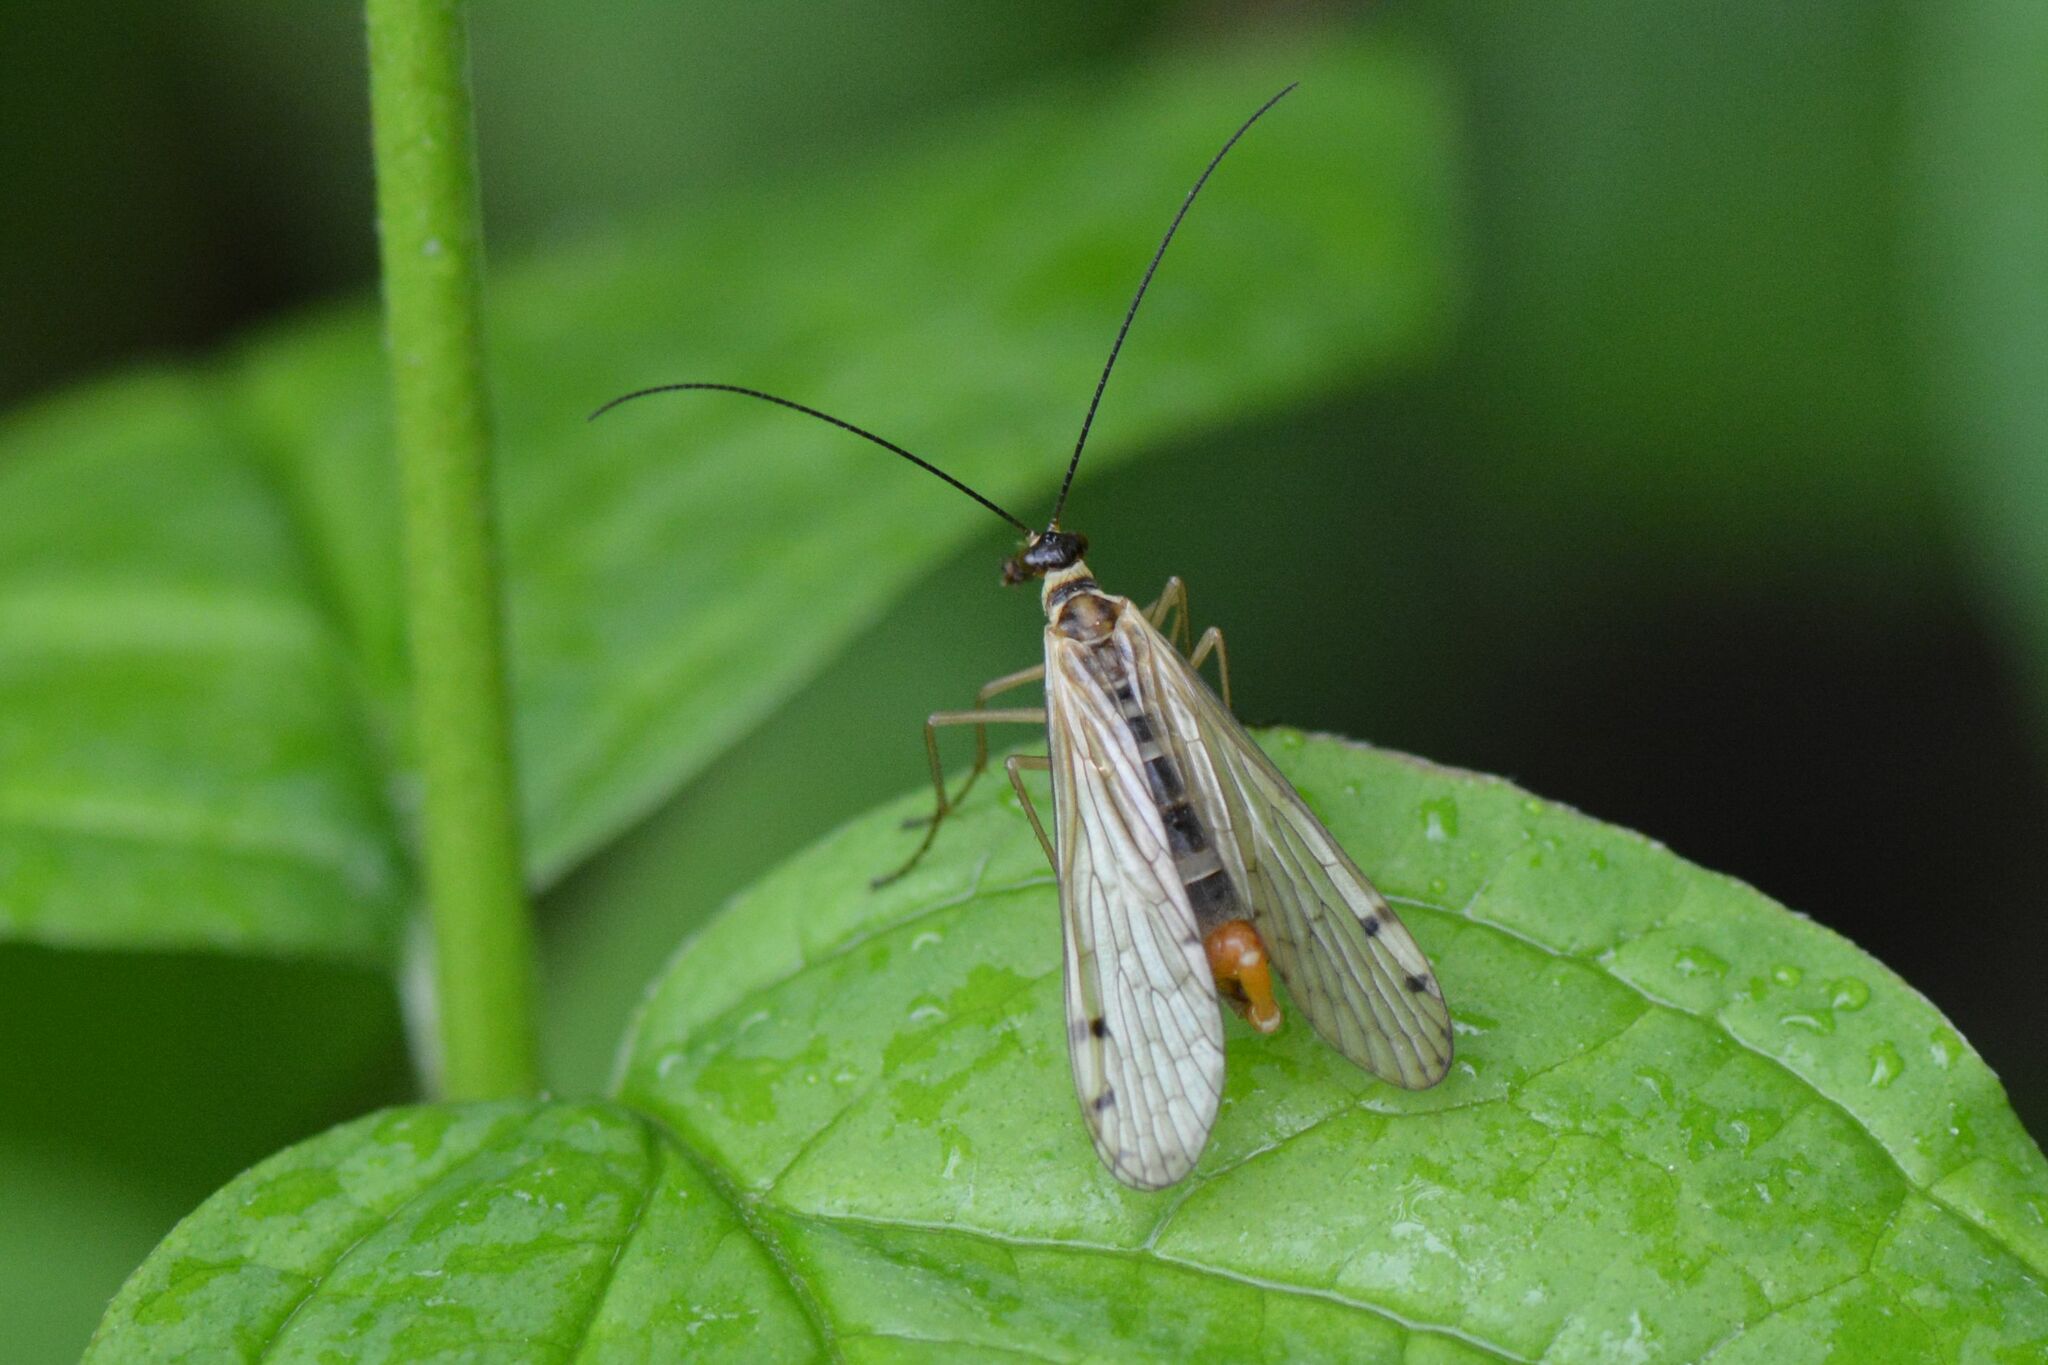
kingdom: Animalia
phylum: Arthropoda
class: Insecta
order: Mecoptera
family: Panorpidae
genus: Panorpa
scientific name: Panorpa alpina
